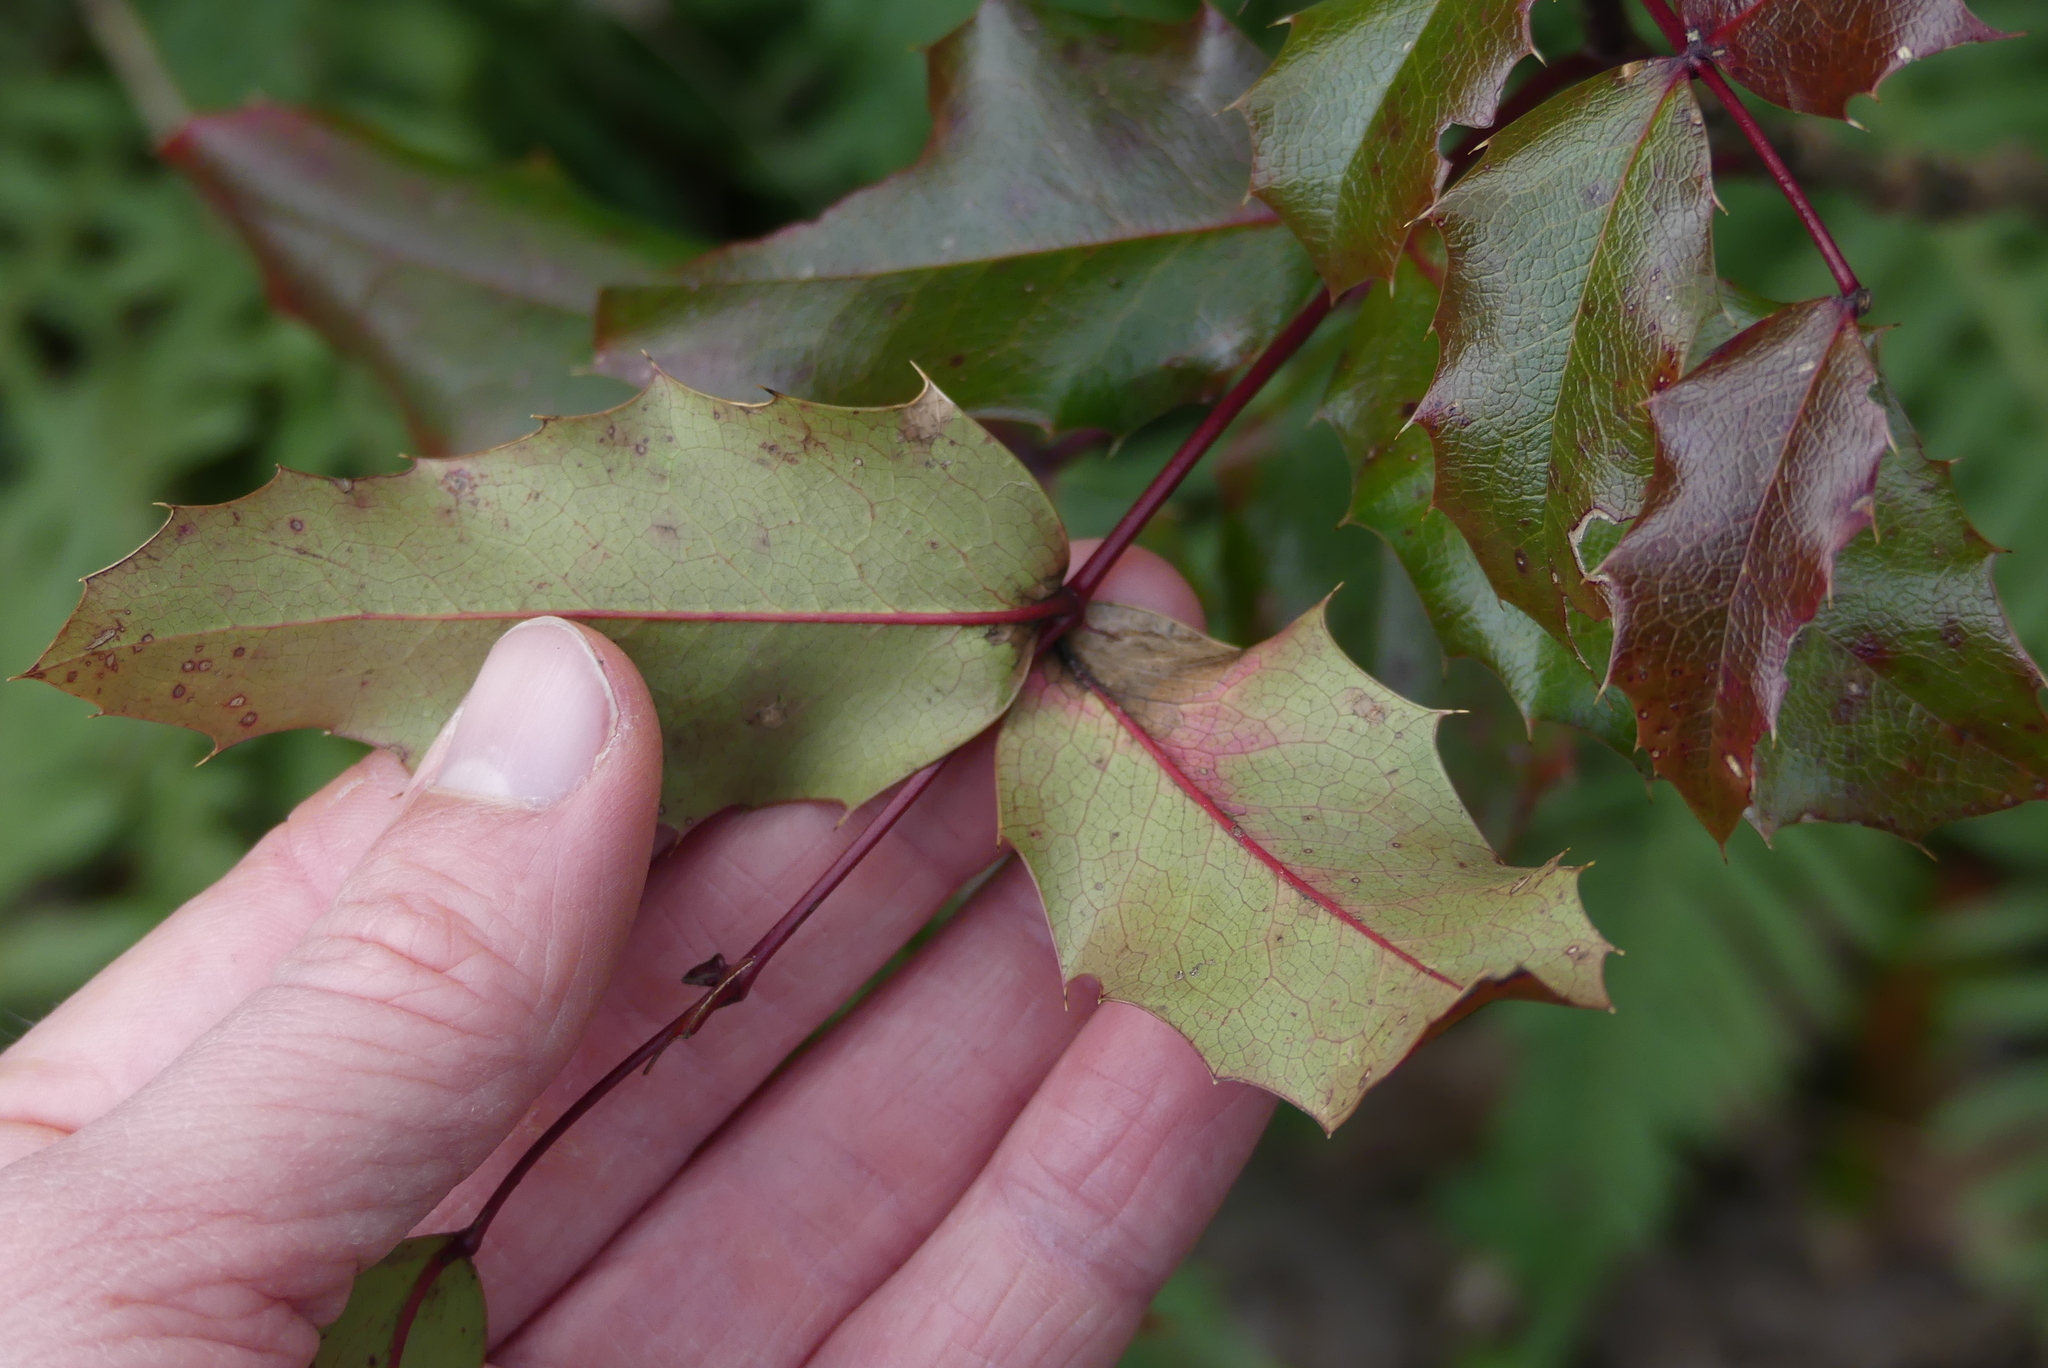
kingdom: Plantae
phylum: Tracheophyta
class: Magnoliopsida
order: Ranunculales
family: Berberidaceae
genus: Mahonia
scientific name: Mahonia aquifolium
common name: Oregon-grape
